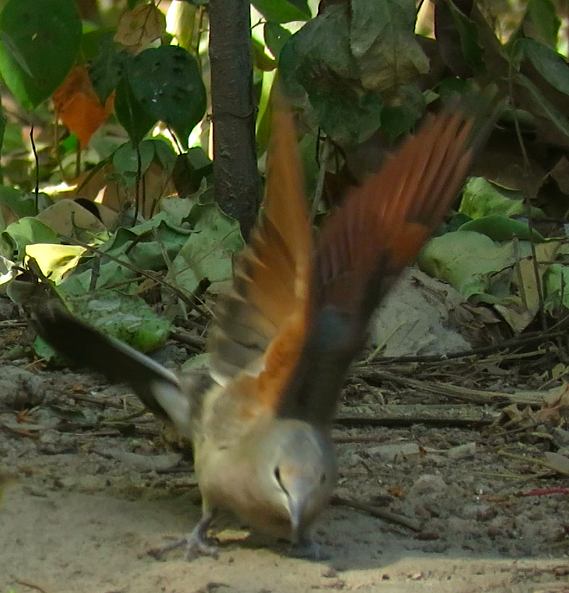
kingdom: Animalia
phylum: Chordata
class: Aves
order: Columbiformes
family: Columbidae
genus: Turtur
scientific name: Turtur abyssinicus
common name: Black-billed wood dove
